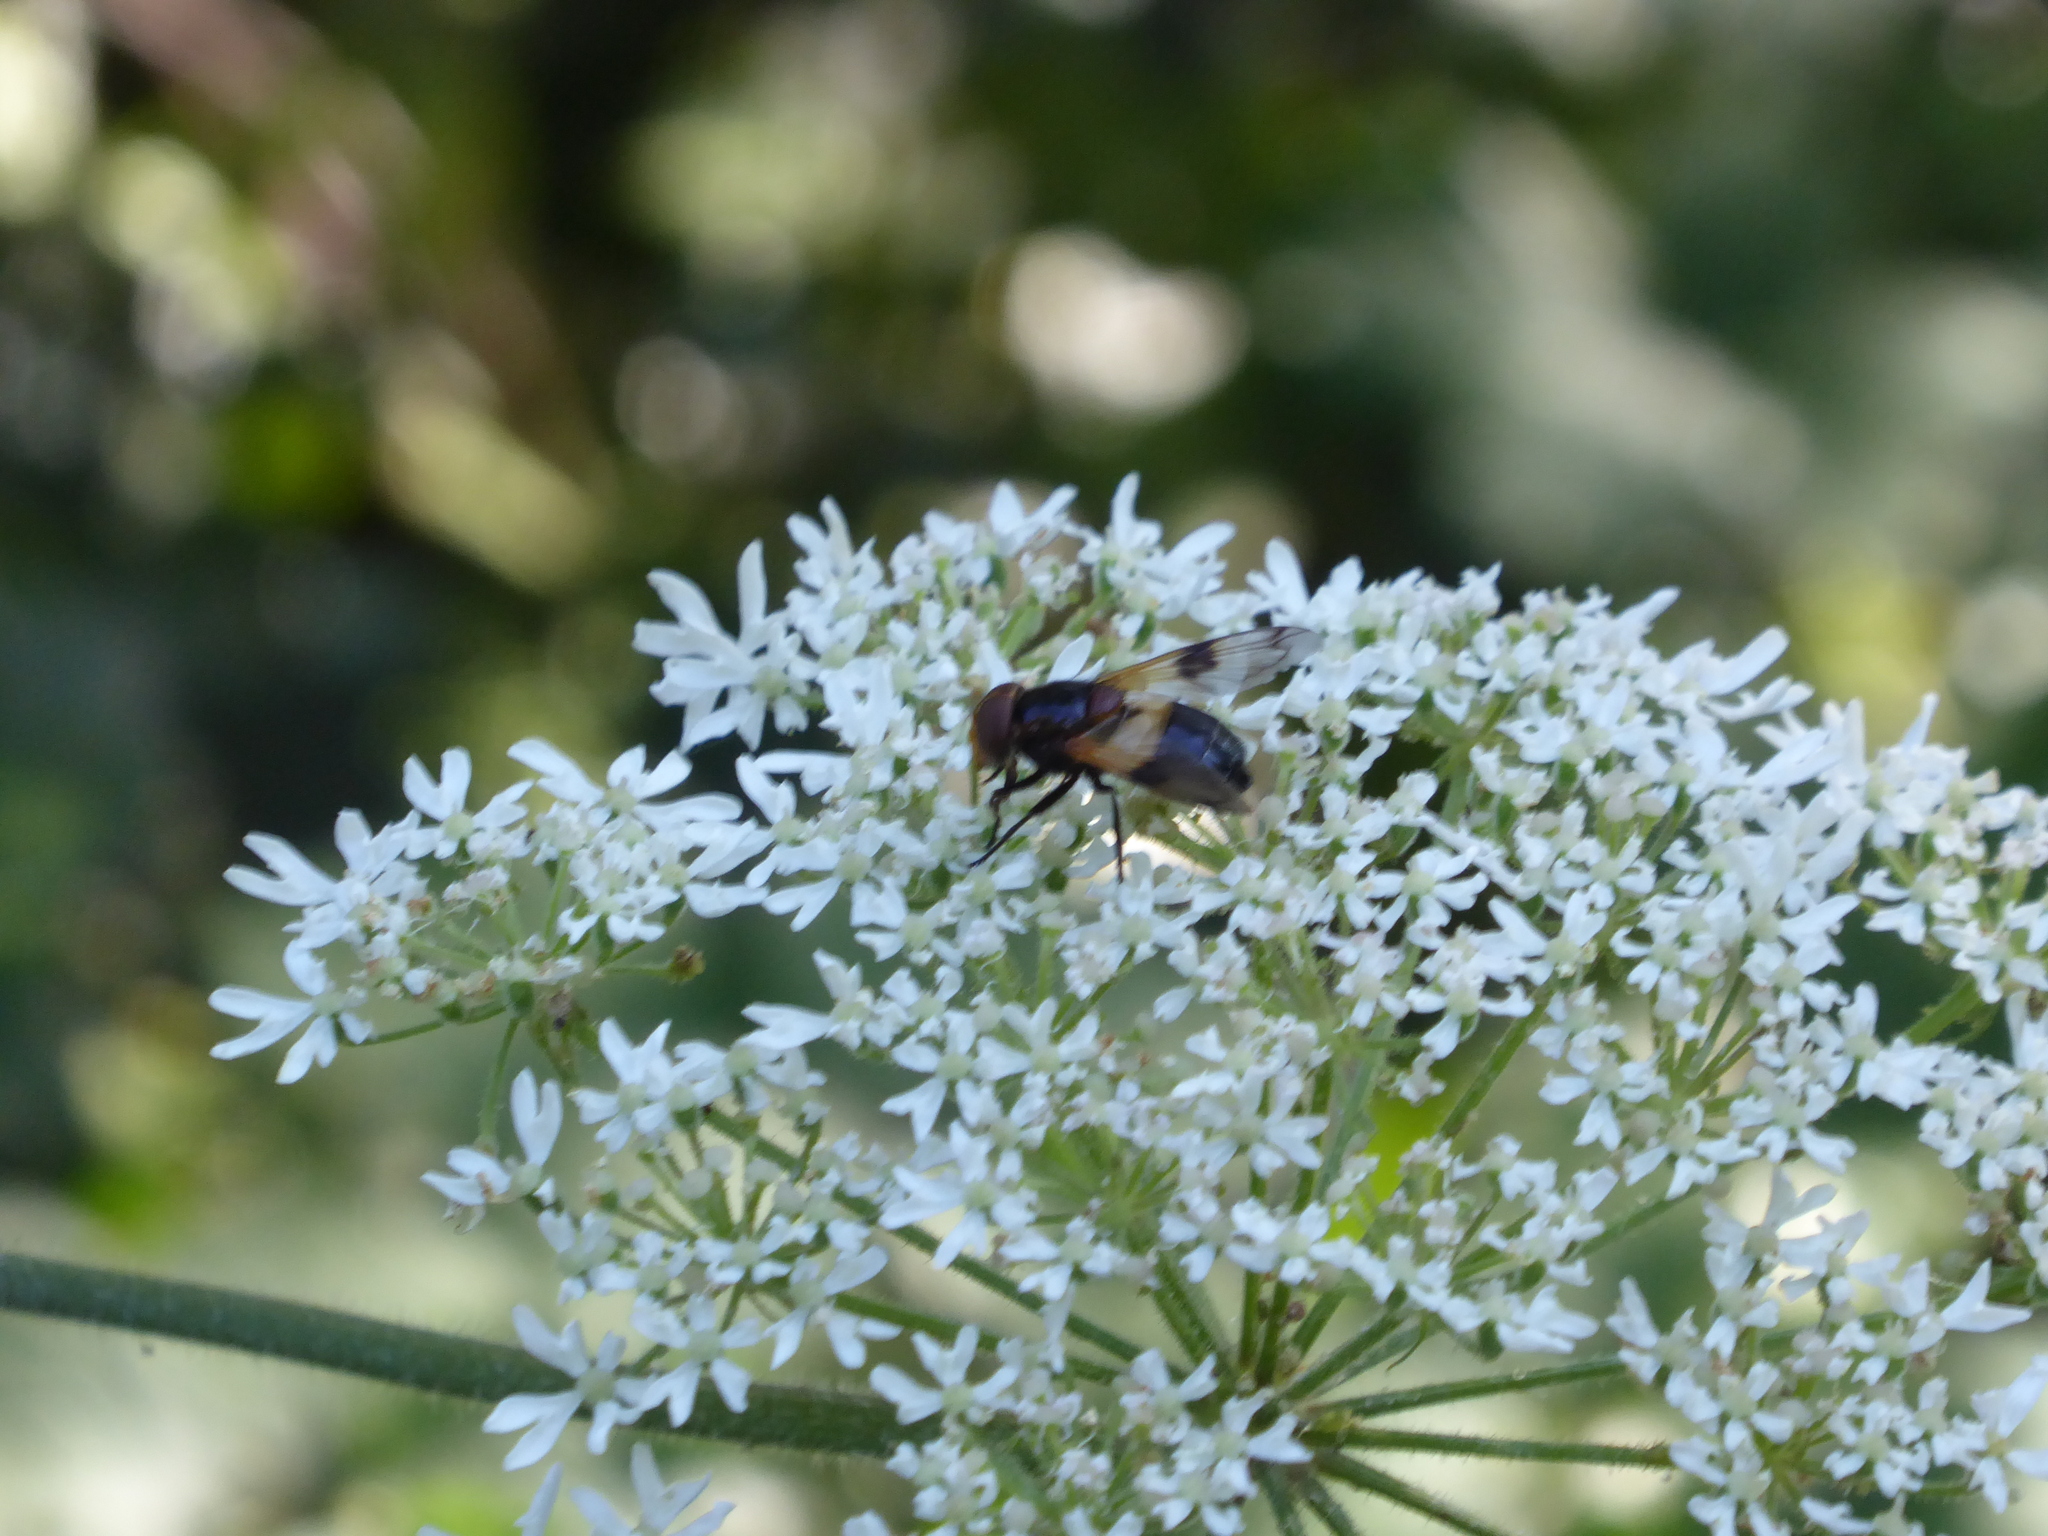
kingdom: Animalia
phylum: Arthropoda
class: Insecta
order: Diptera
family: Syrphidae
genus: Volucella
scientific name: Volucella pellucens
